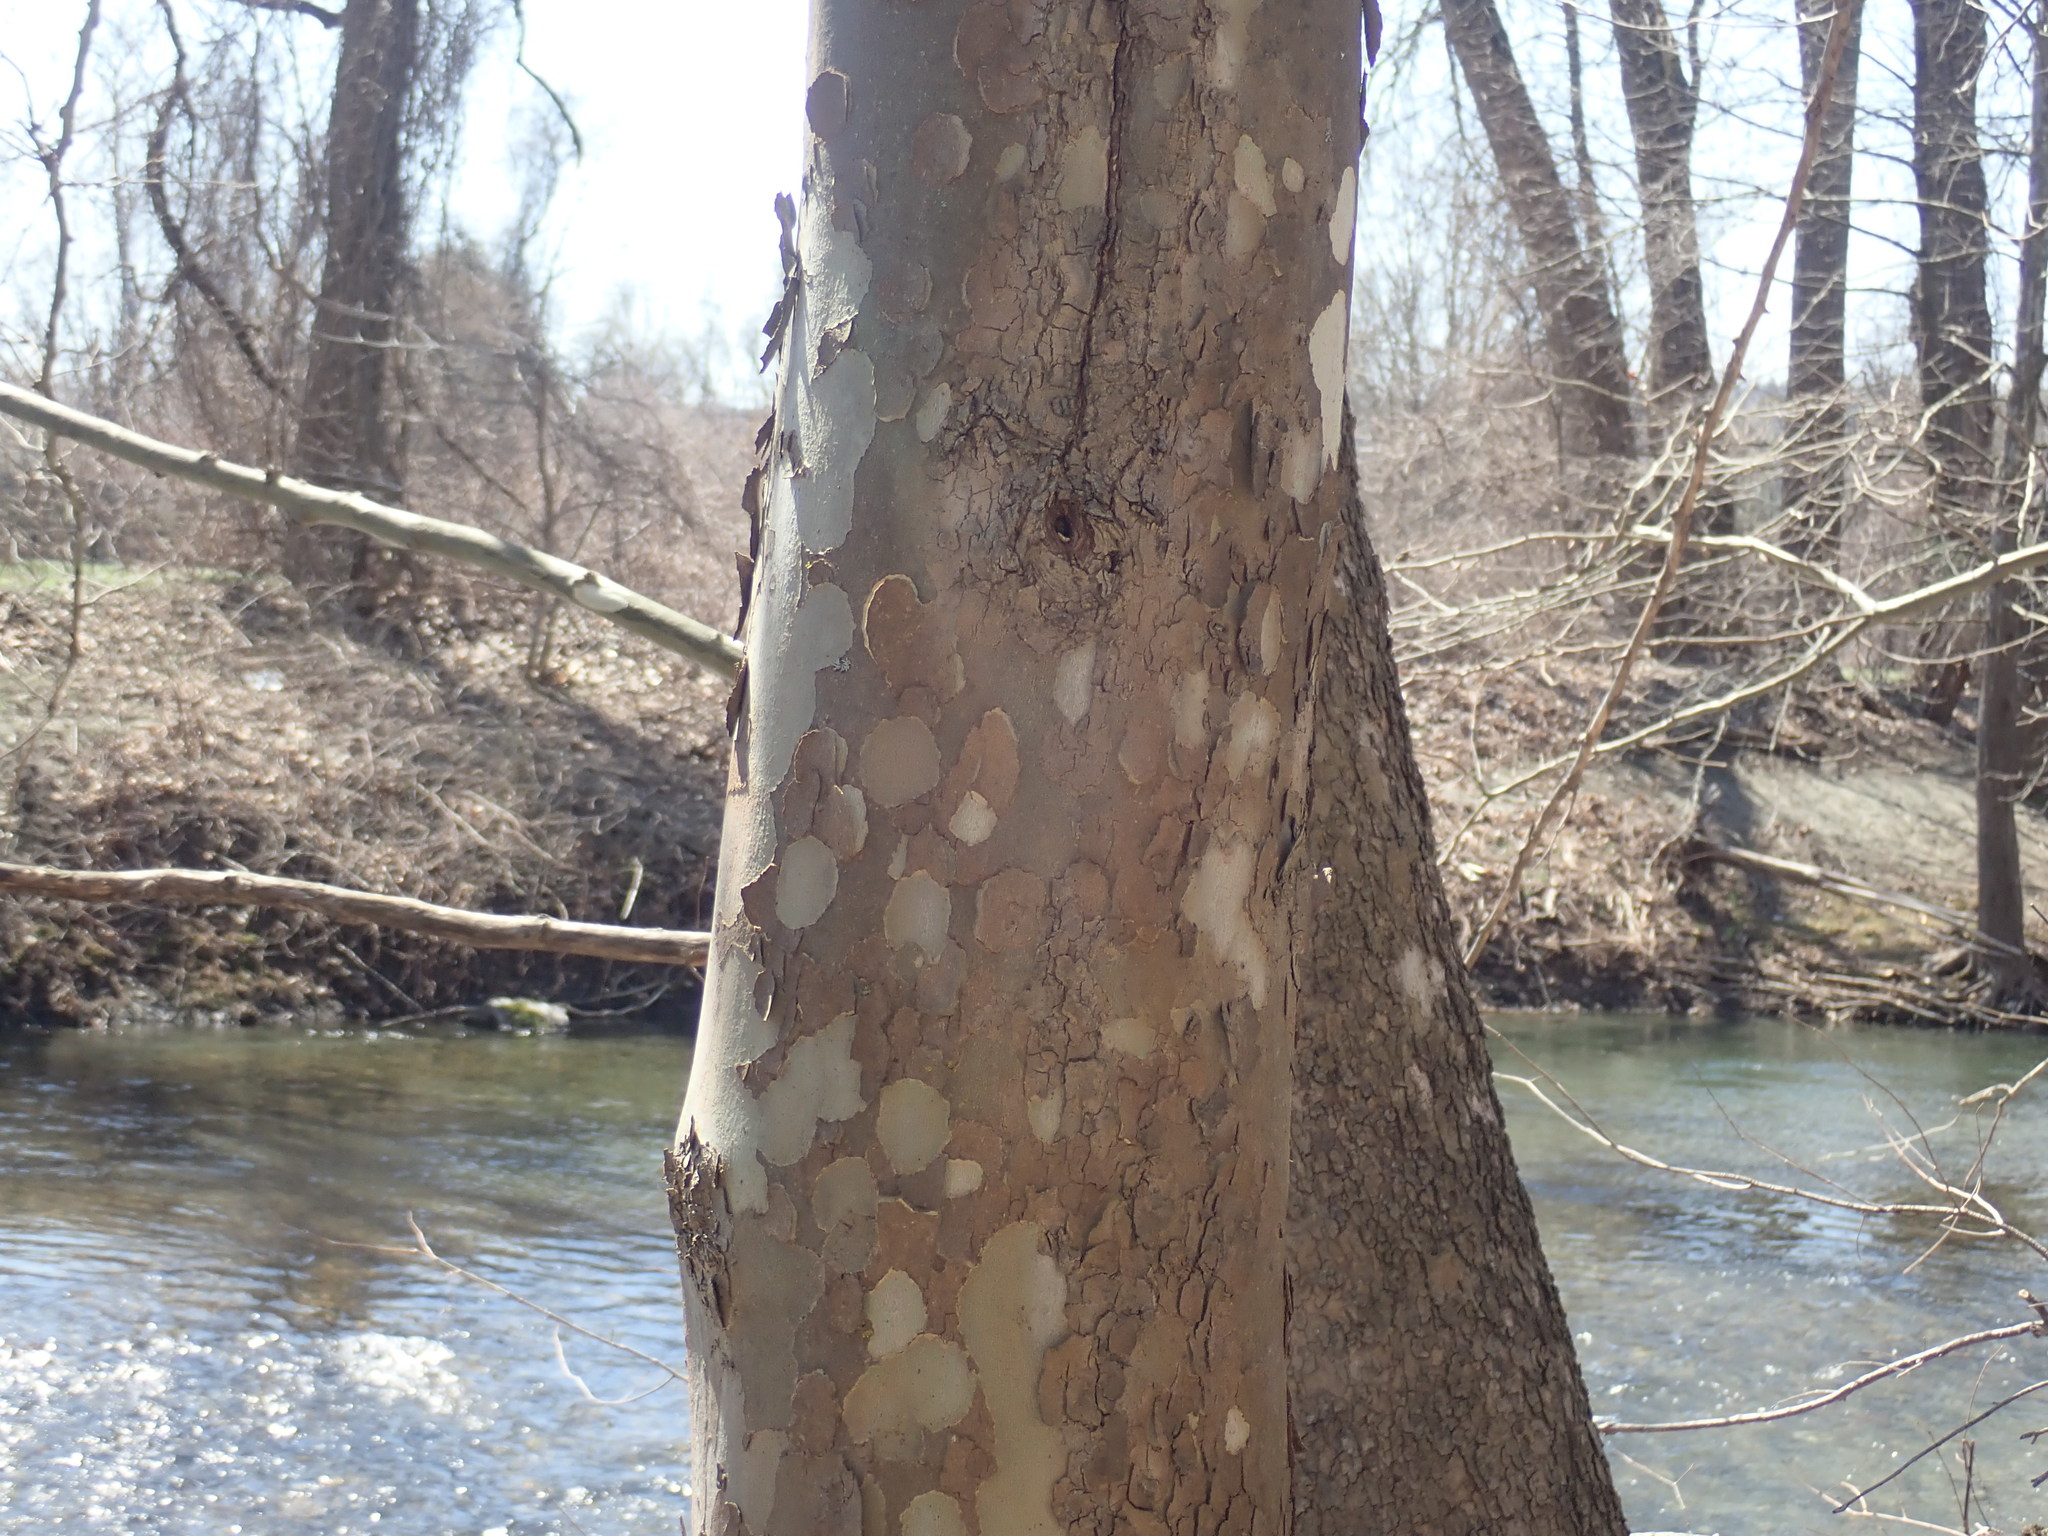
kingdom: Plantae
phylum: Tracheophyta
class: Magnoliopsida
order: Proteales
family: Platanaceae
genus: Platanus
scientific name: Platanus occidentalis
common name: American sycamore
